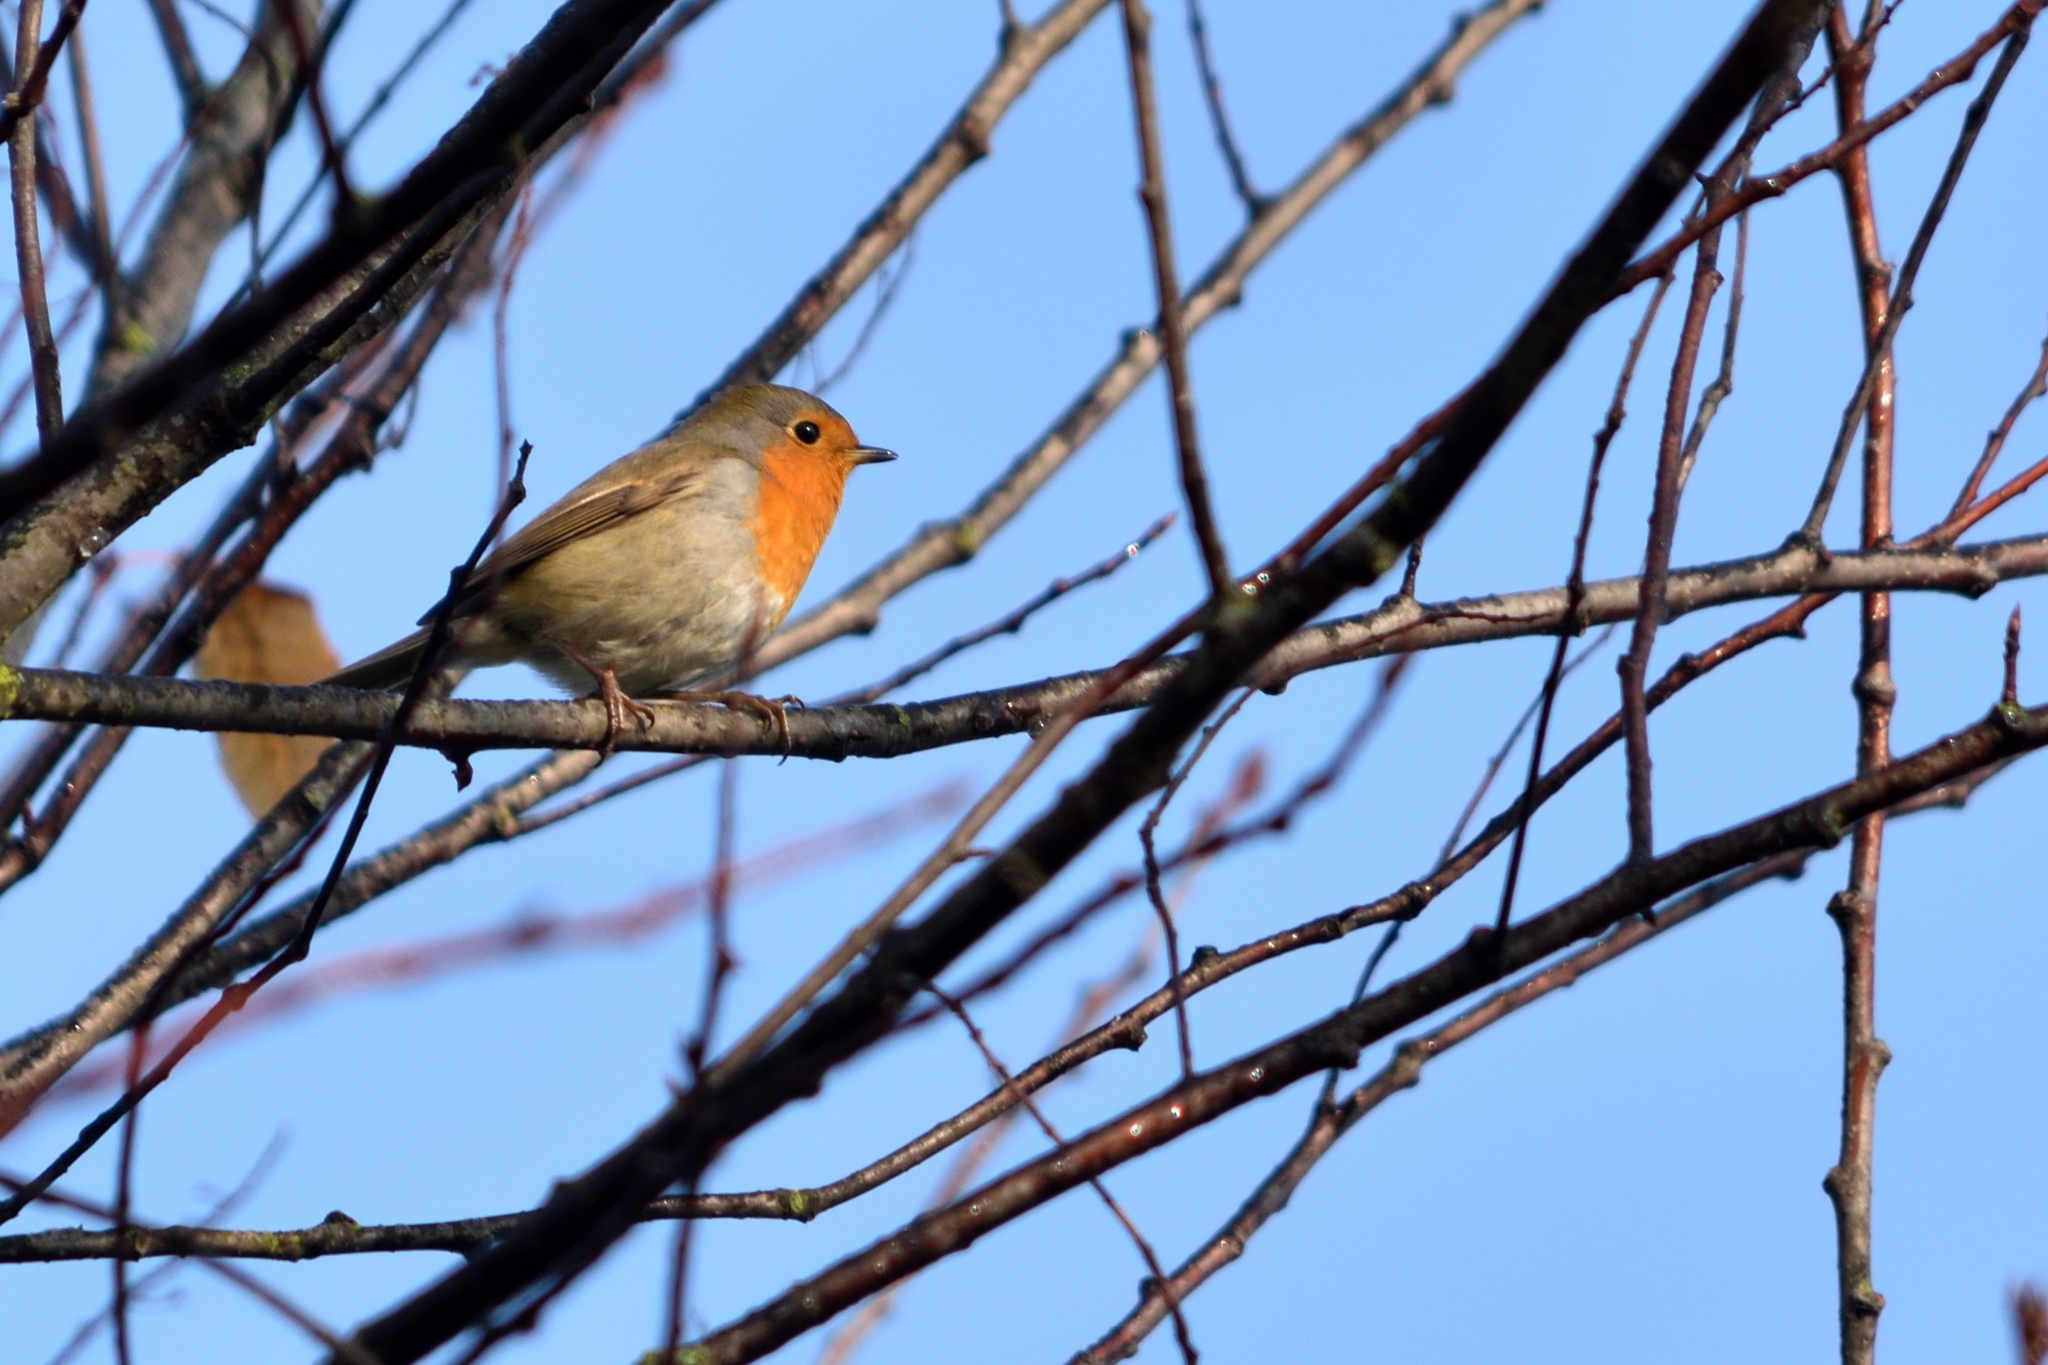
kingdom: Animalia
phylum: Chordata
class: Aves
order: Passeriformes
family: Muscicapidae
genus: Erithacus
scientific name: Erithacus rubecula
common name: European robin
